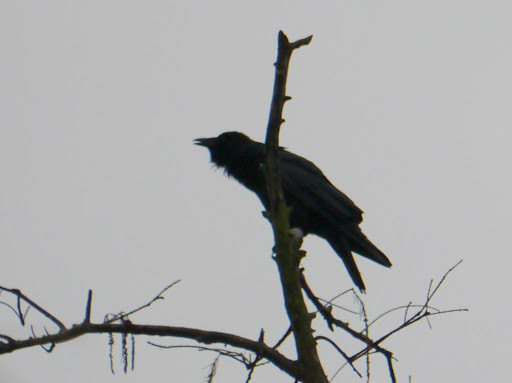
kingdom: Animalia
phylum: Chordata
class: Aves
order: Passeriformes
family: Corvidae
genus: Corvus
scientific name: Corvus
